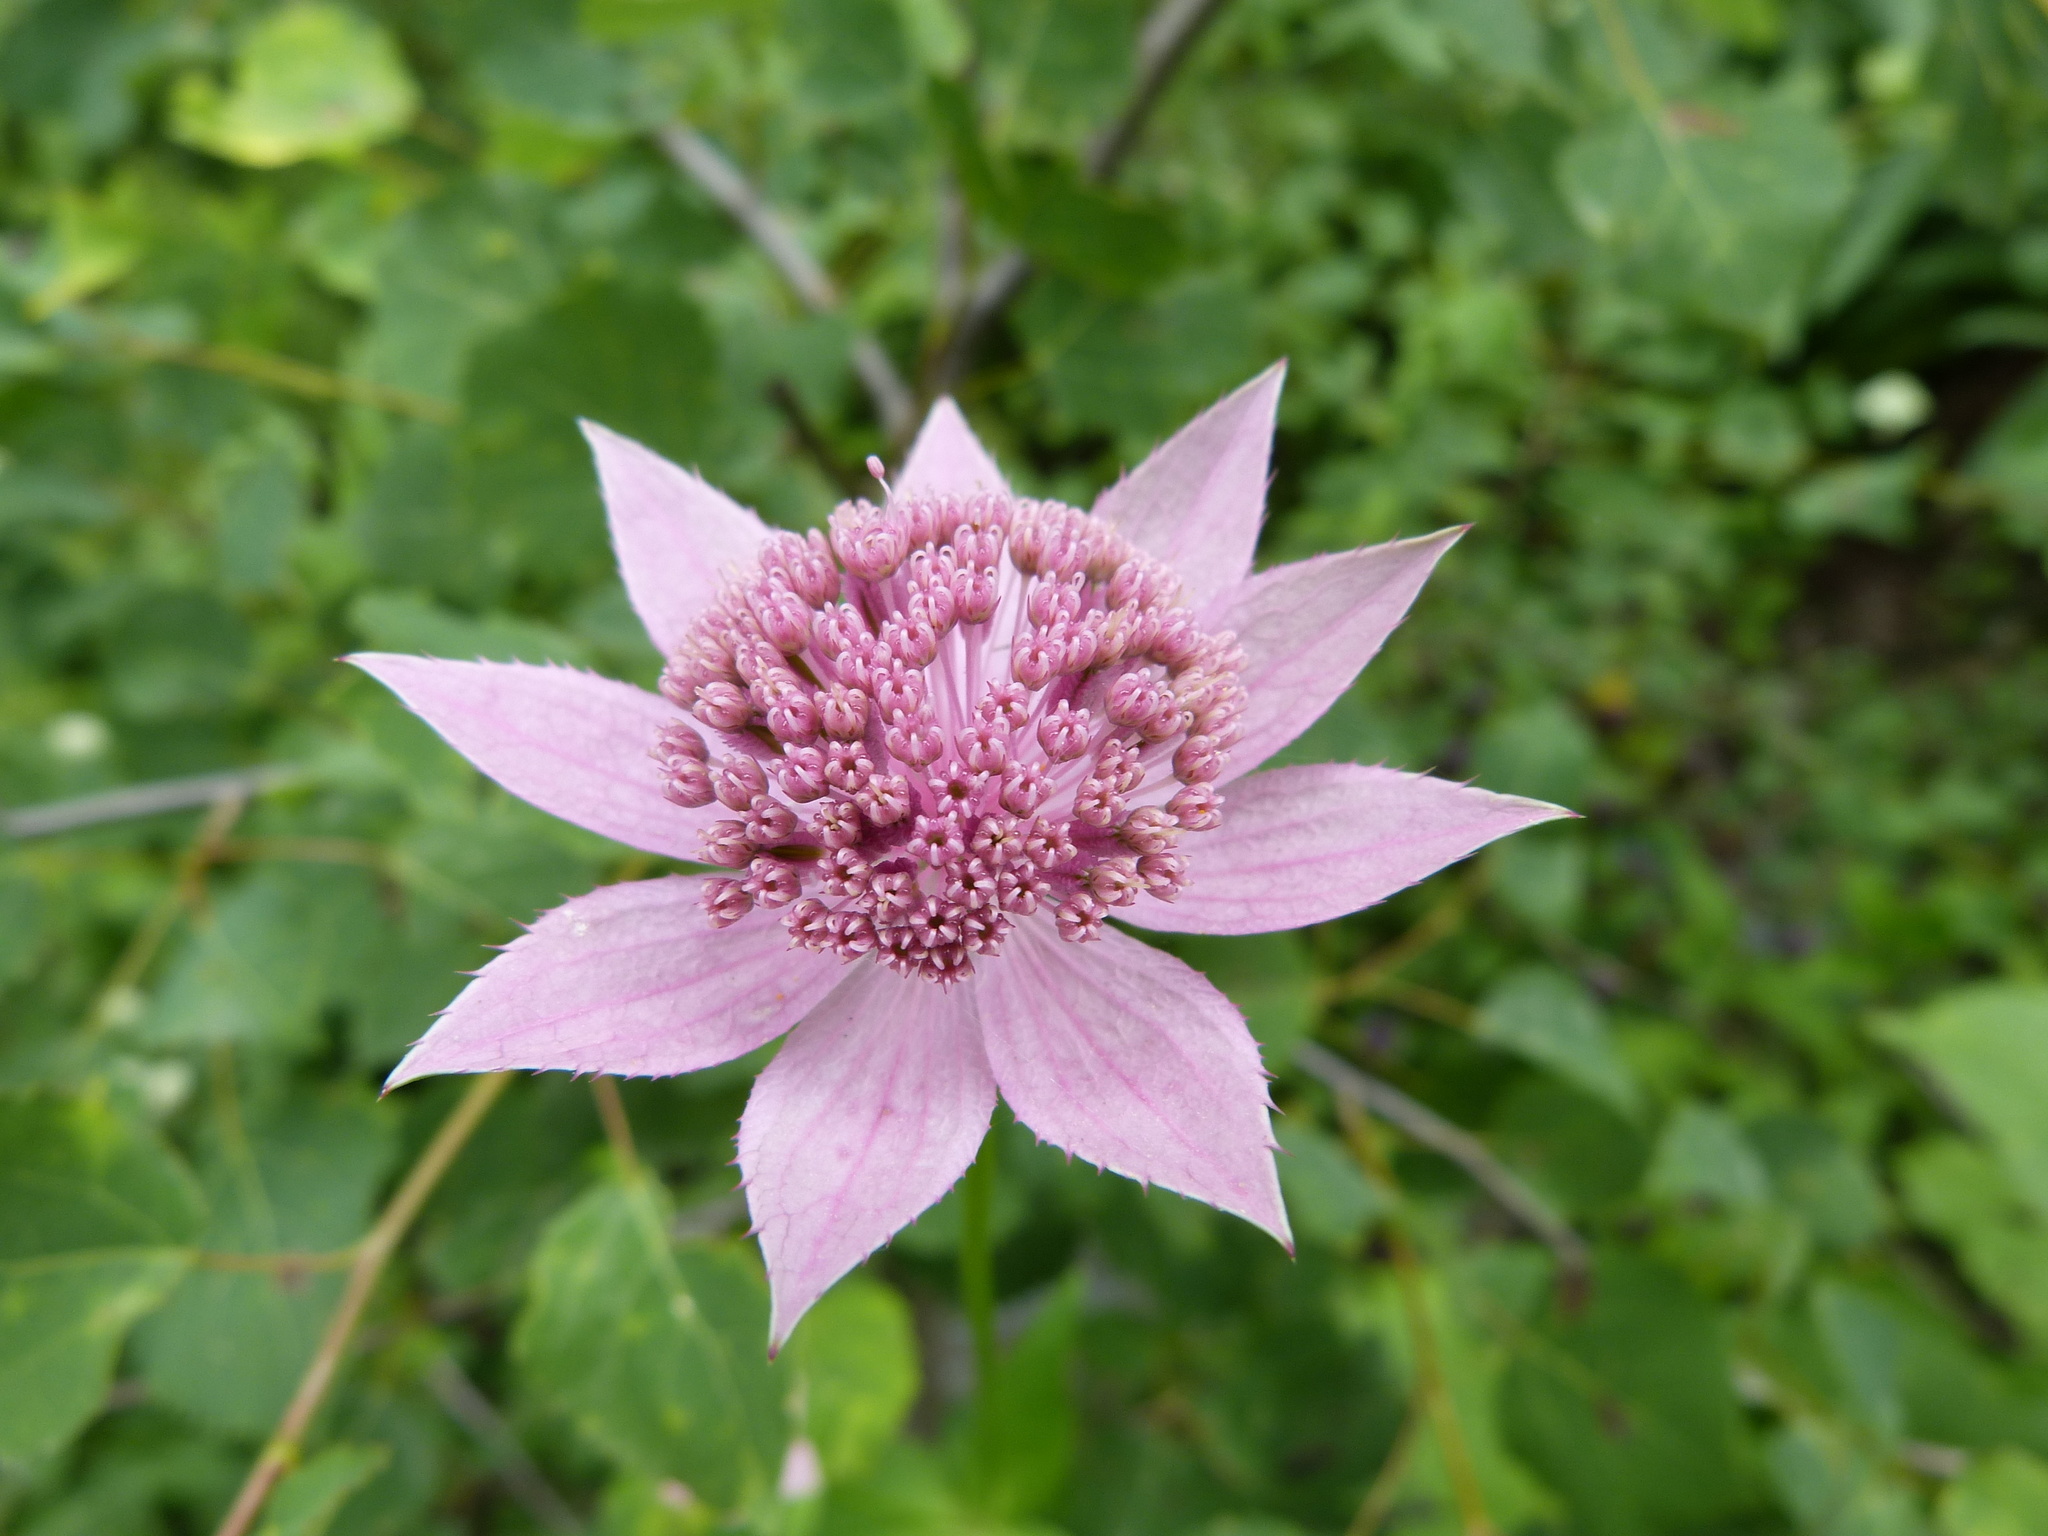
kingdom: Plantae
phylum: Tracheophyta
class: Magnoliopsida
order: Apiales
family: Apiaceae
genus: Astrantia
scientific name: Astrantia maxima
